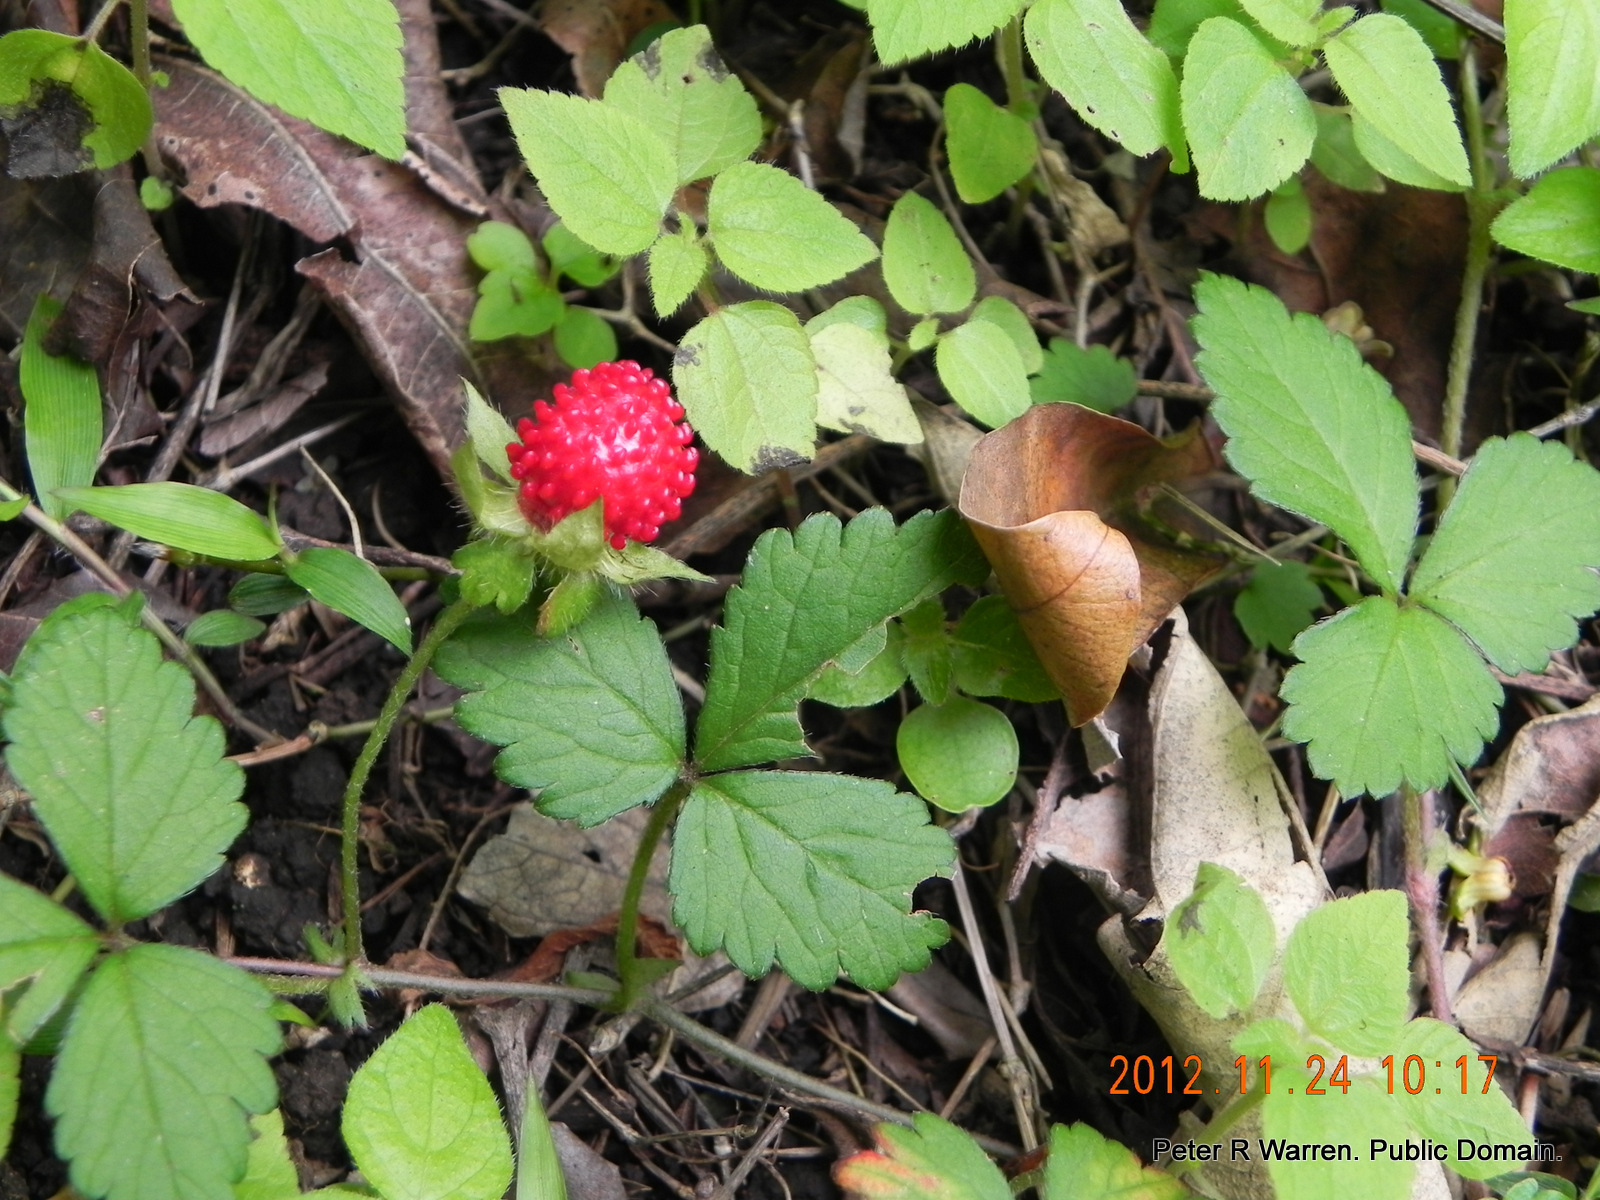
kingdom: Plantae
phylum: Tracheophyta
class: Magnoliopsida
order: Rosales
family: Rosaceae
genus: Potentilla
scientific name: Potentilla indica
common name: Yellow-flowered strawberry
